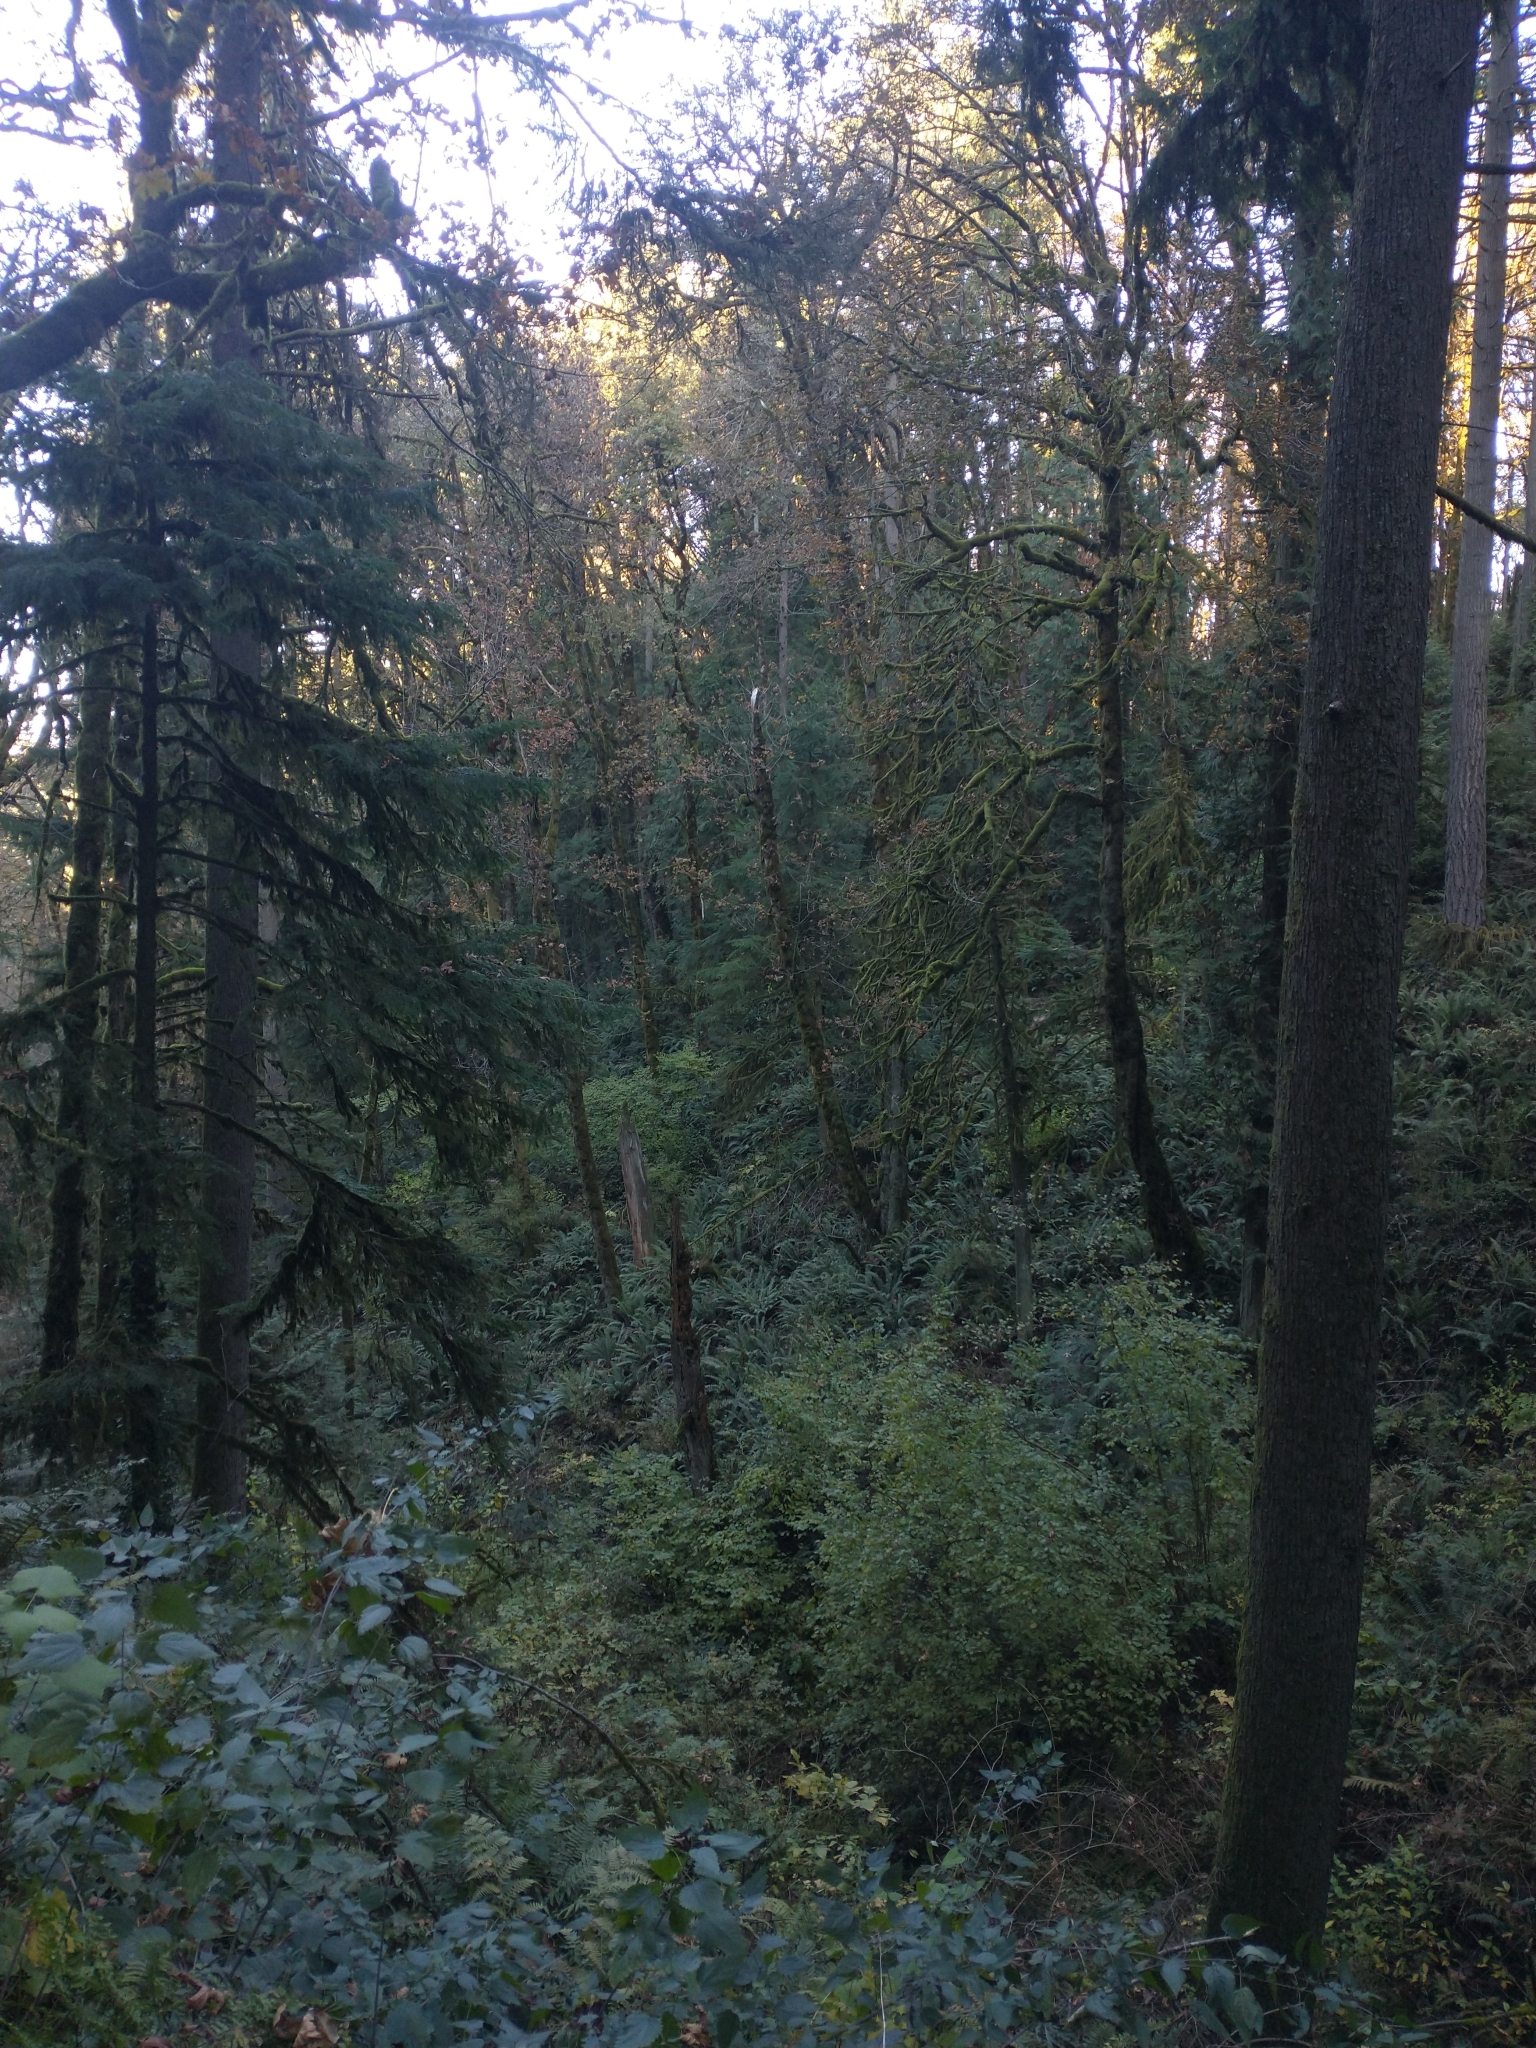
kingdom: Plantae
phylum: Tracheophyta
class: Pinopsida
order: Pinales
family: Pinaceae
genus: Tsuga
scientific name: Tsuga heterophylla
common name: Western hemlock
